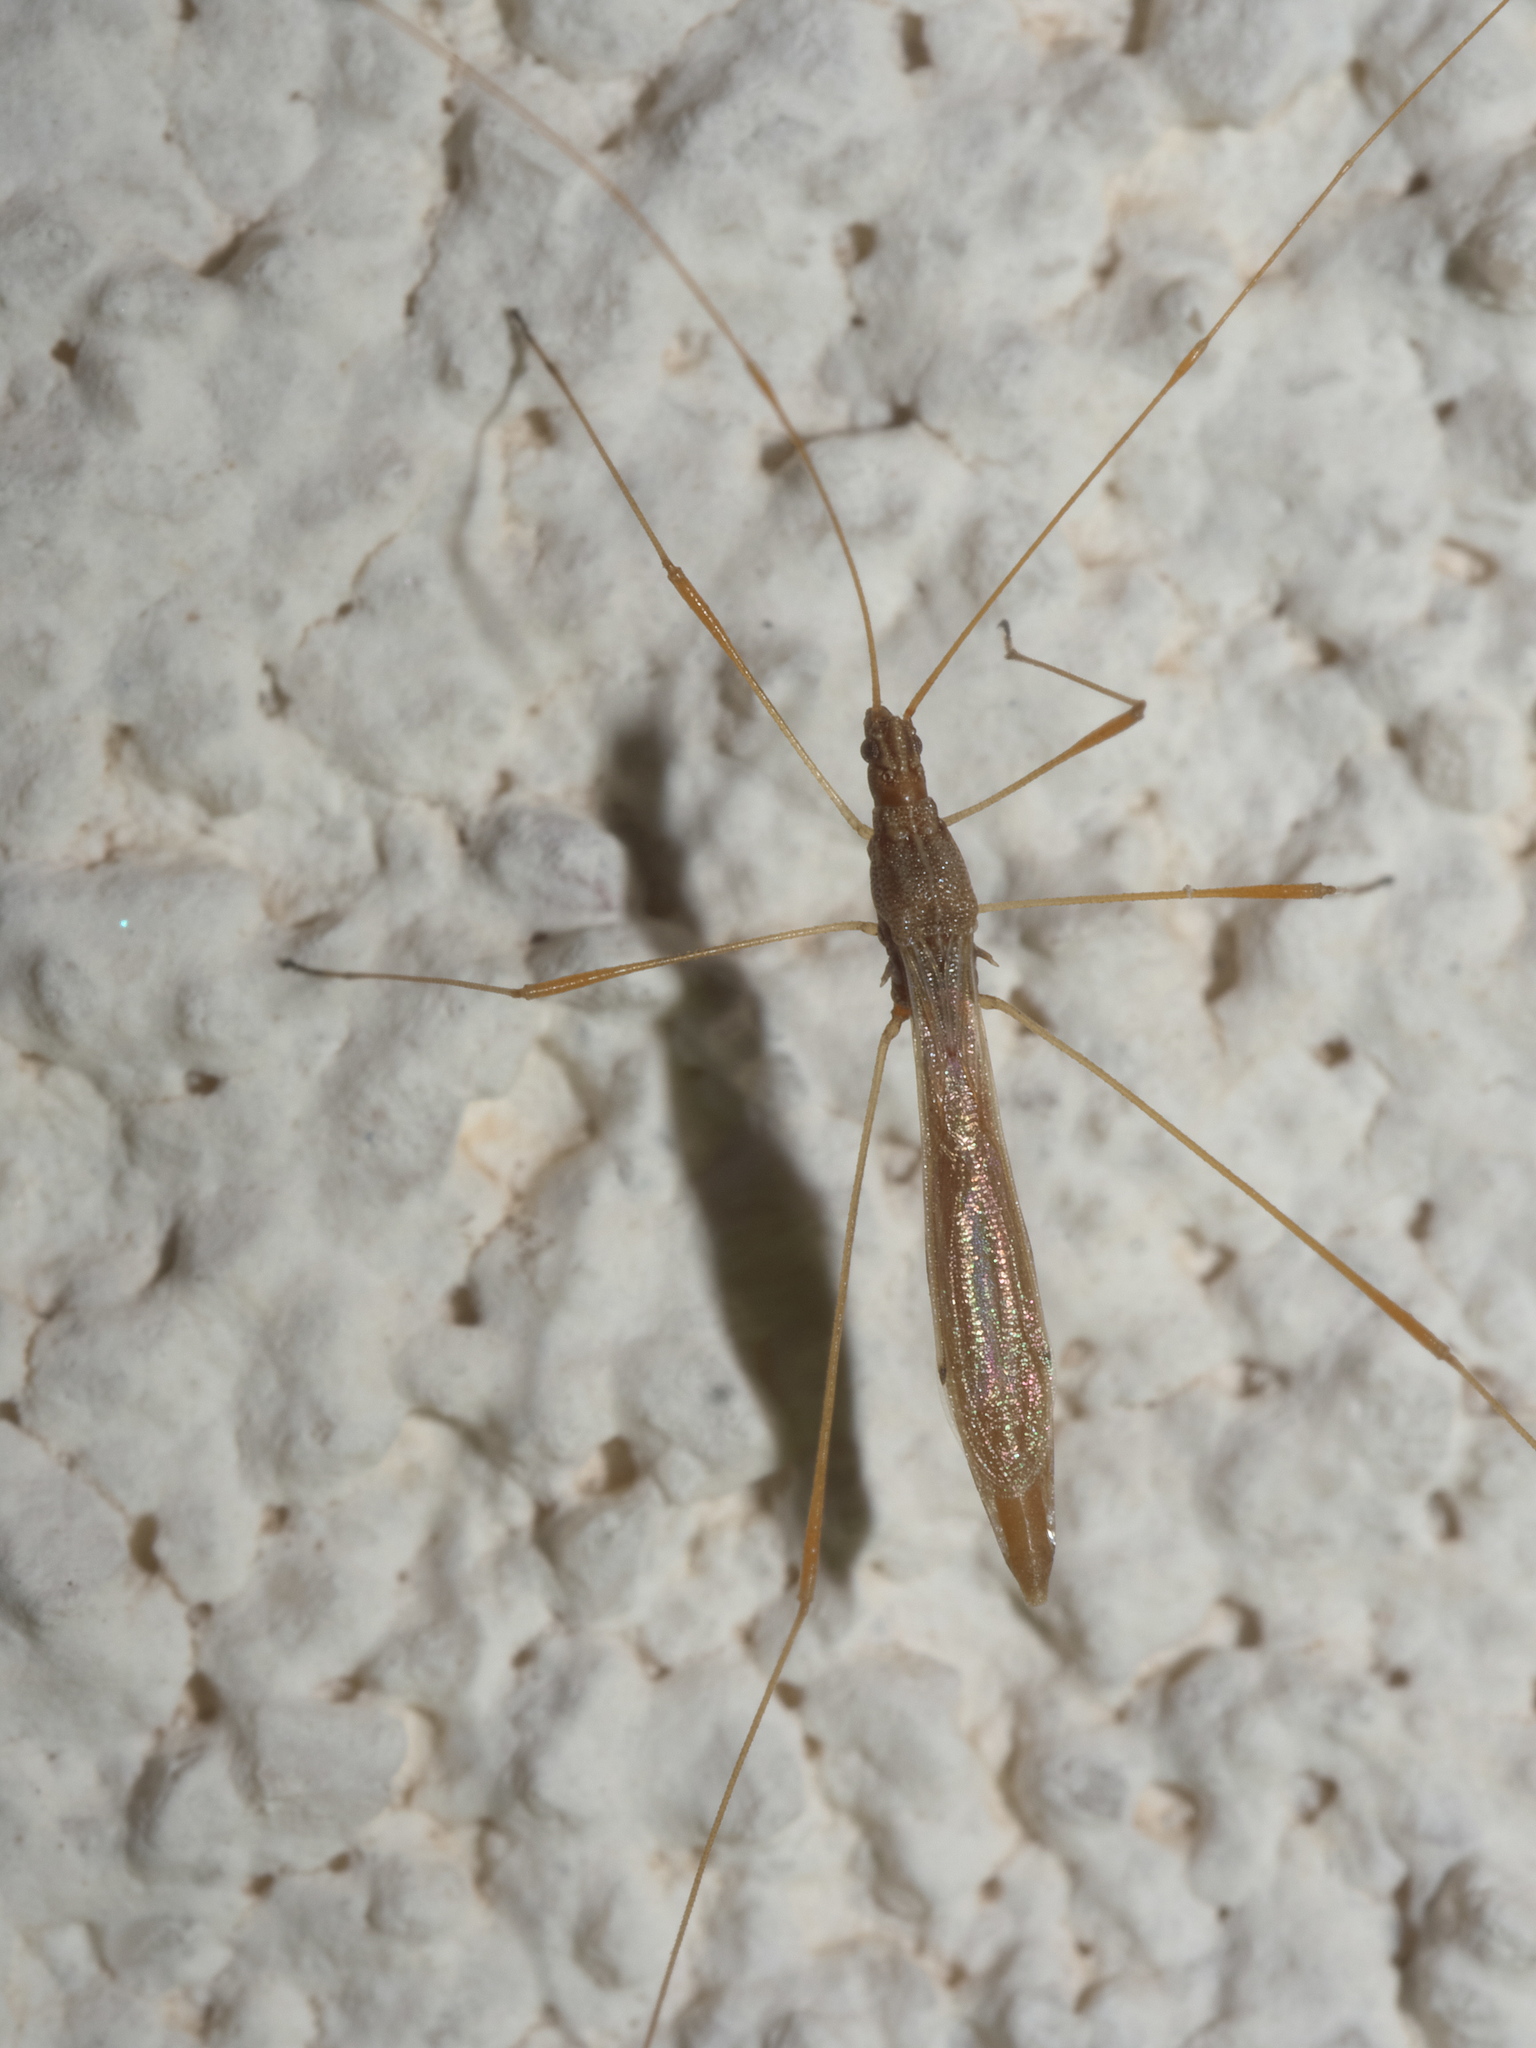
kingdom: Animalia
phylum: Arthropoda
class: Insecta
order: Hemiptera
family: Berytidae
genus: Jalysus
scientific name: Jalysus wickhami
